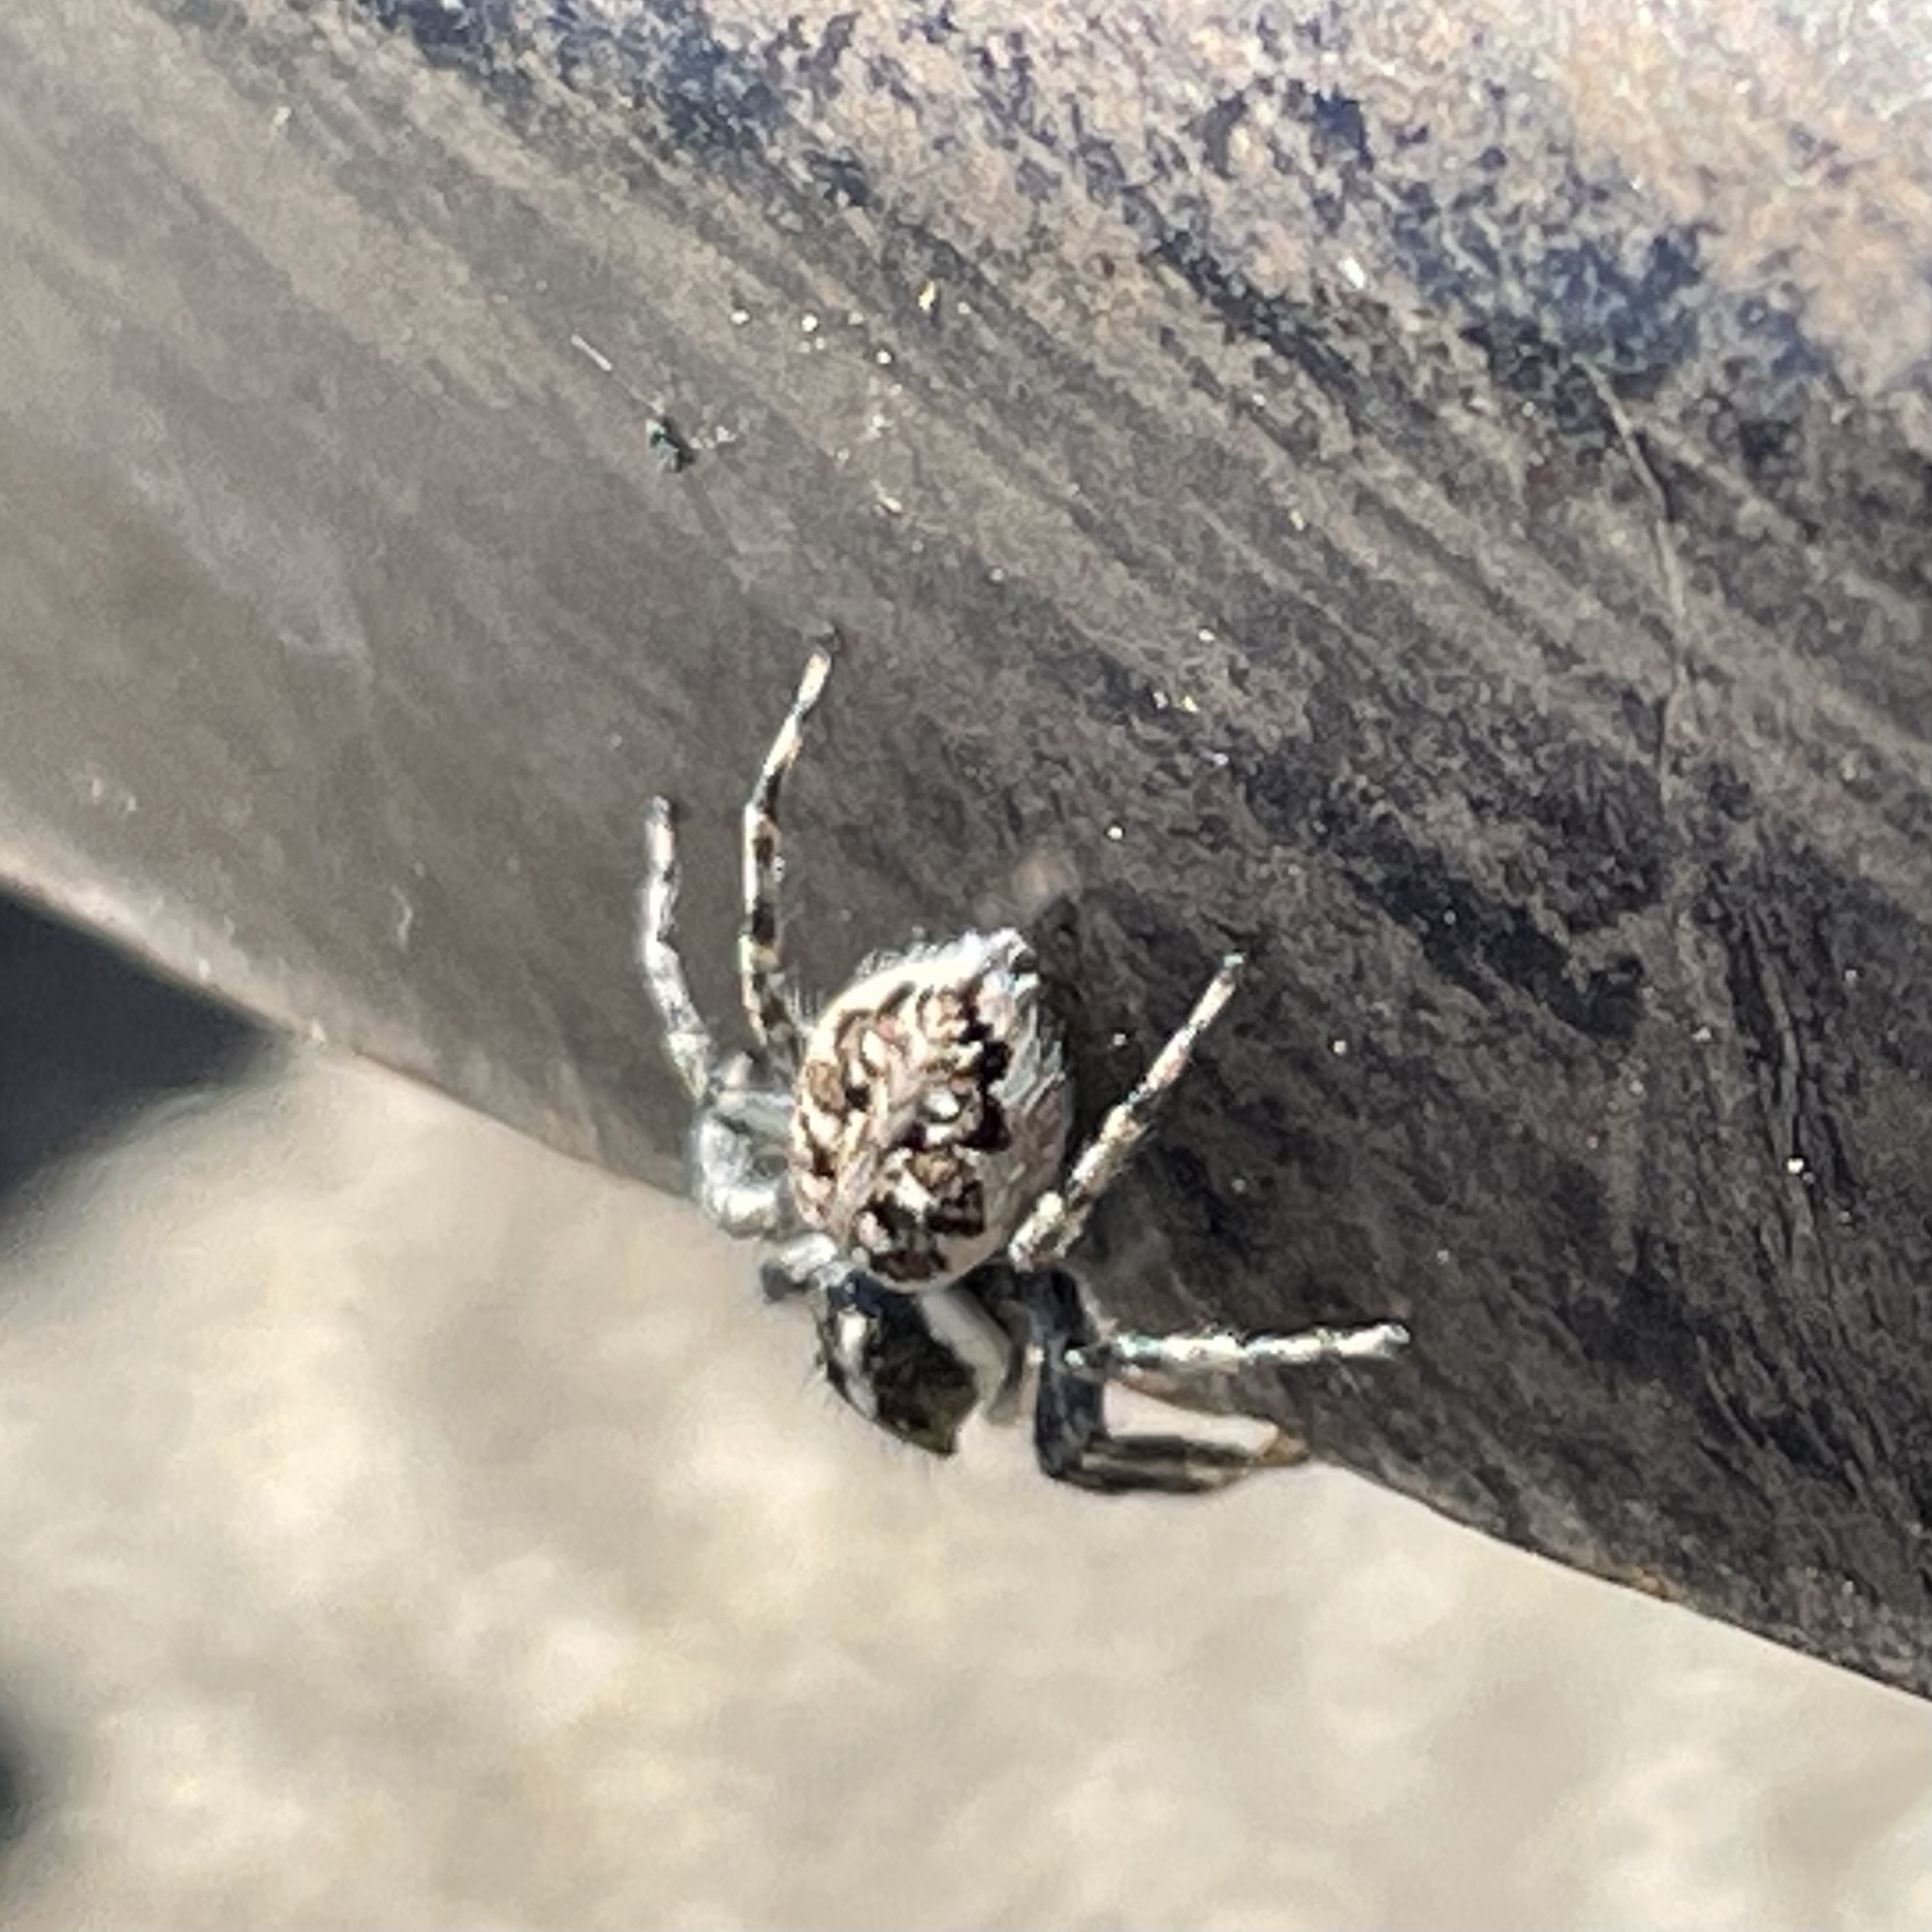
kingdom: Animalia
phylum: Arthropoda
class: Arachnida
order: Araneae
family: Salticidae
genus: Menemerus
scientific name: Menemerus semilimbatus
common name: Jumping spider
